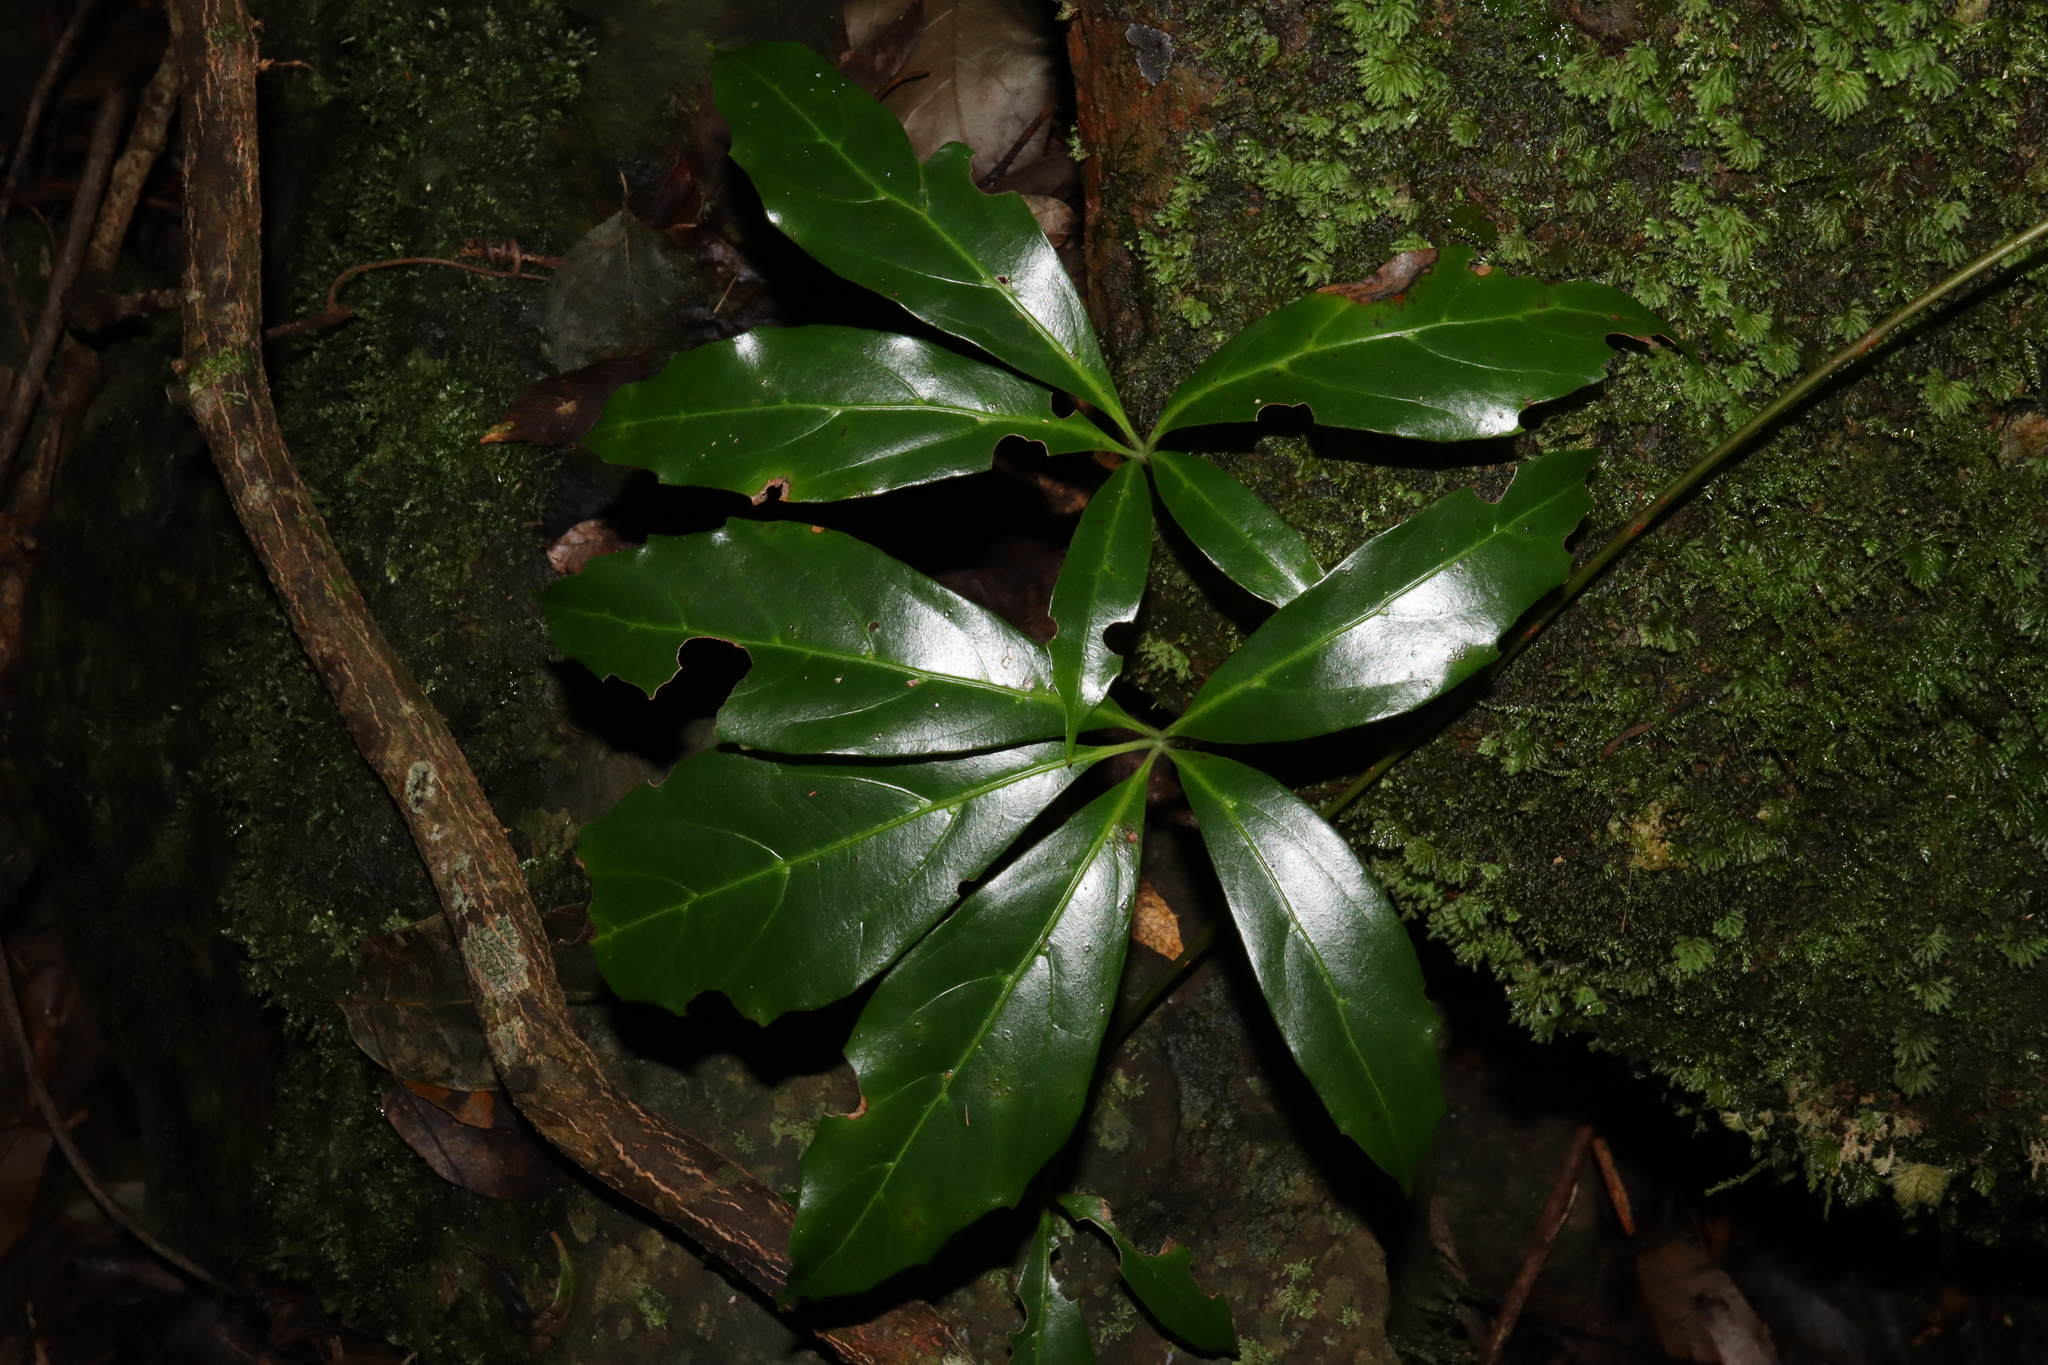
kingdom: Plantae
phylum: Tracheophyta
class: Magnoliopsida
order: Vitales
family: Vitaceae
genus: Nothocissus
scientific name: Nothocissus sterculiifolia
